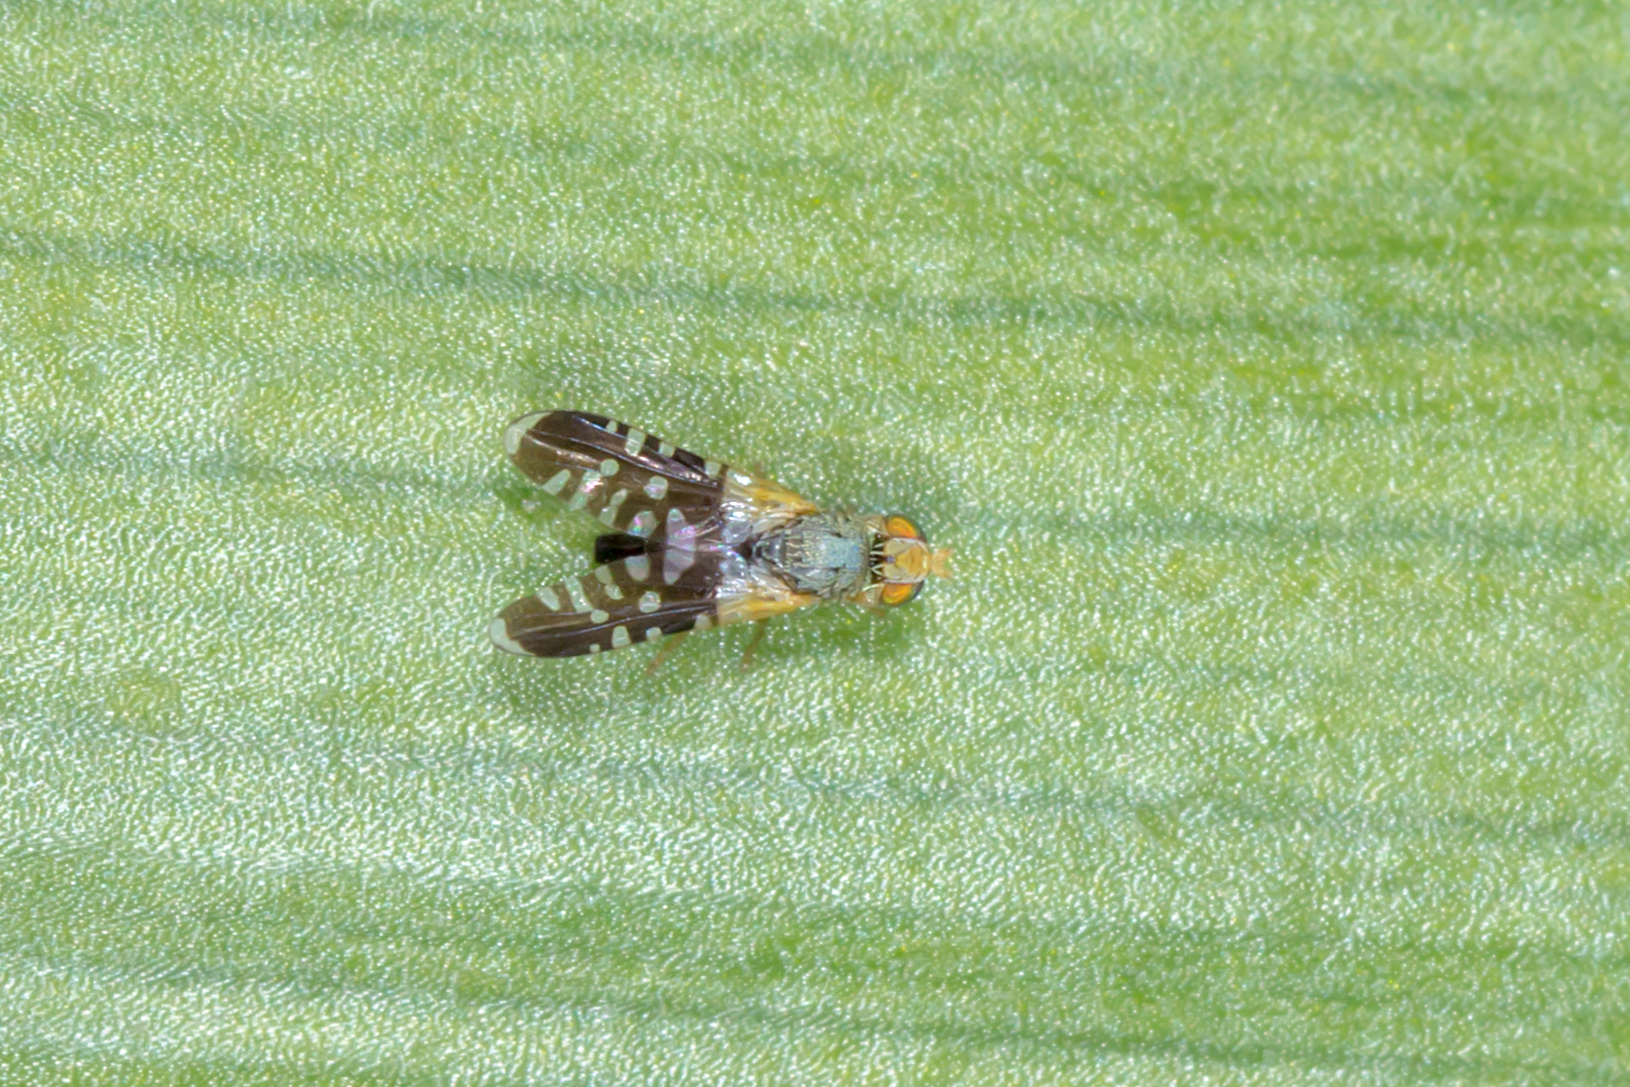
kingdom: Animalia
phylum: Arthropoda
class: Insecta
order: Diptera
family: Tephritidae
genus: Spathulina
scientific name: Spathulina acroleuca
